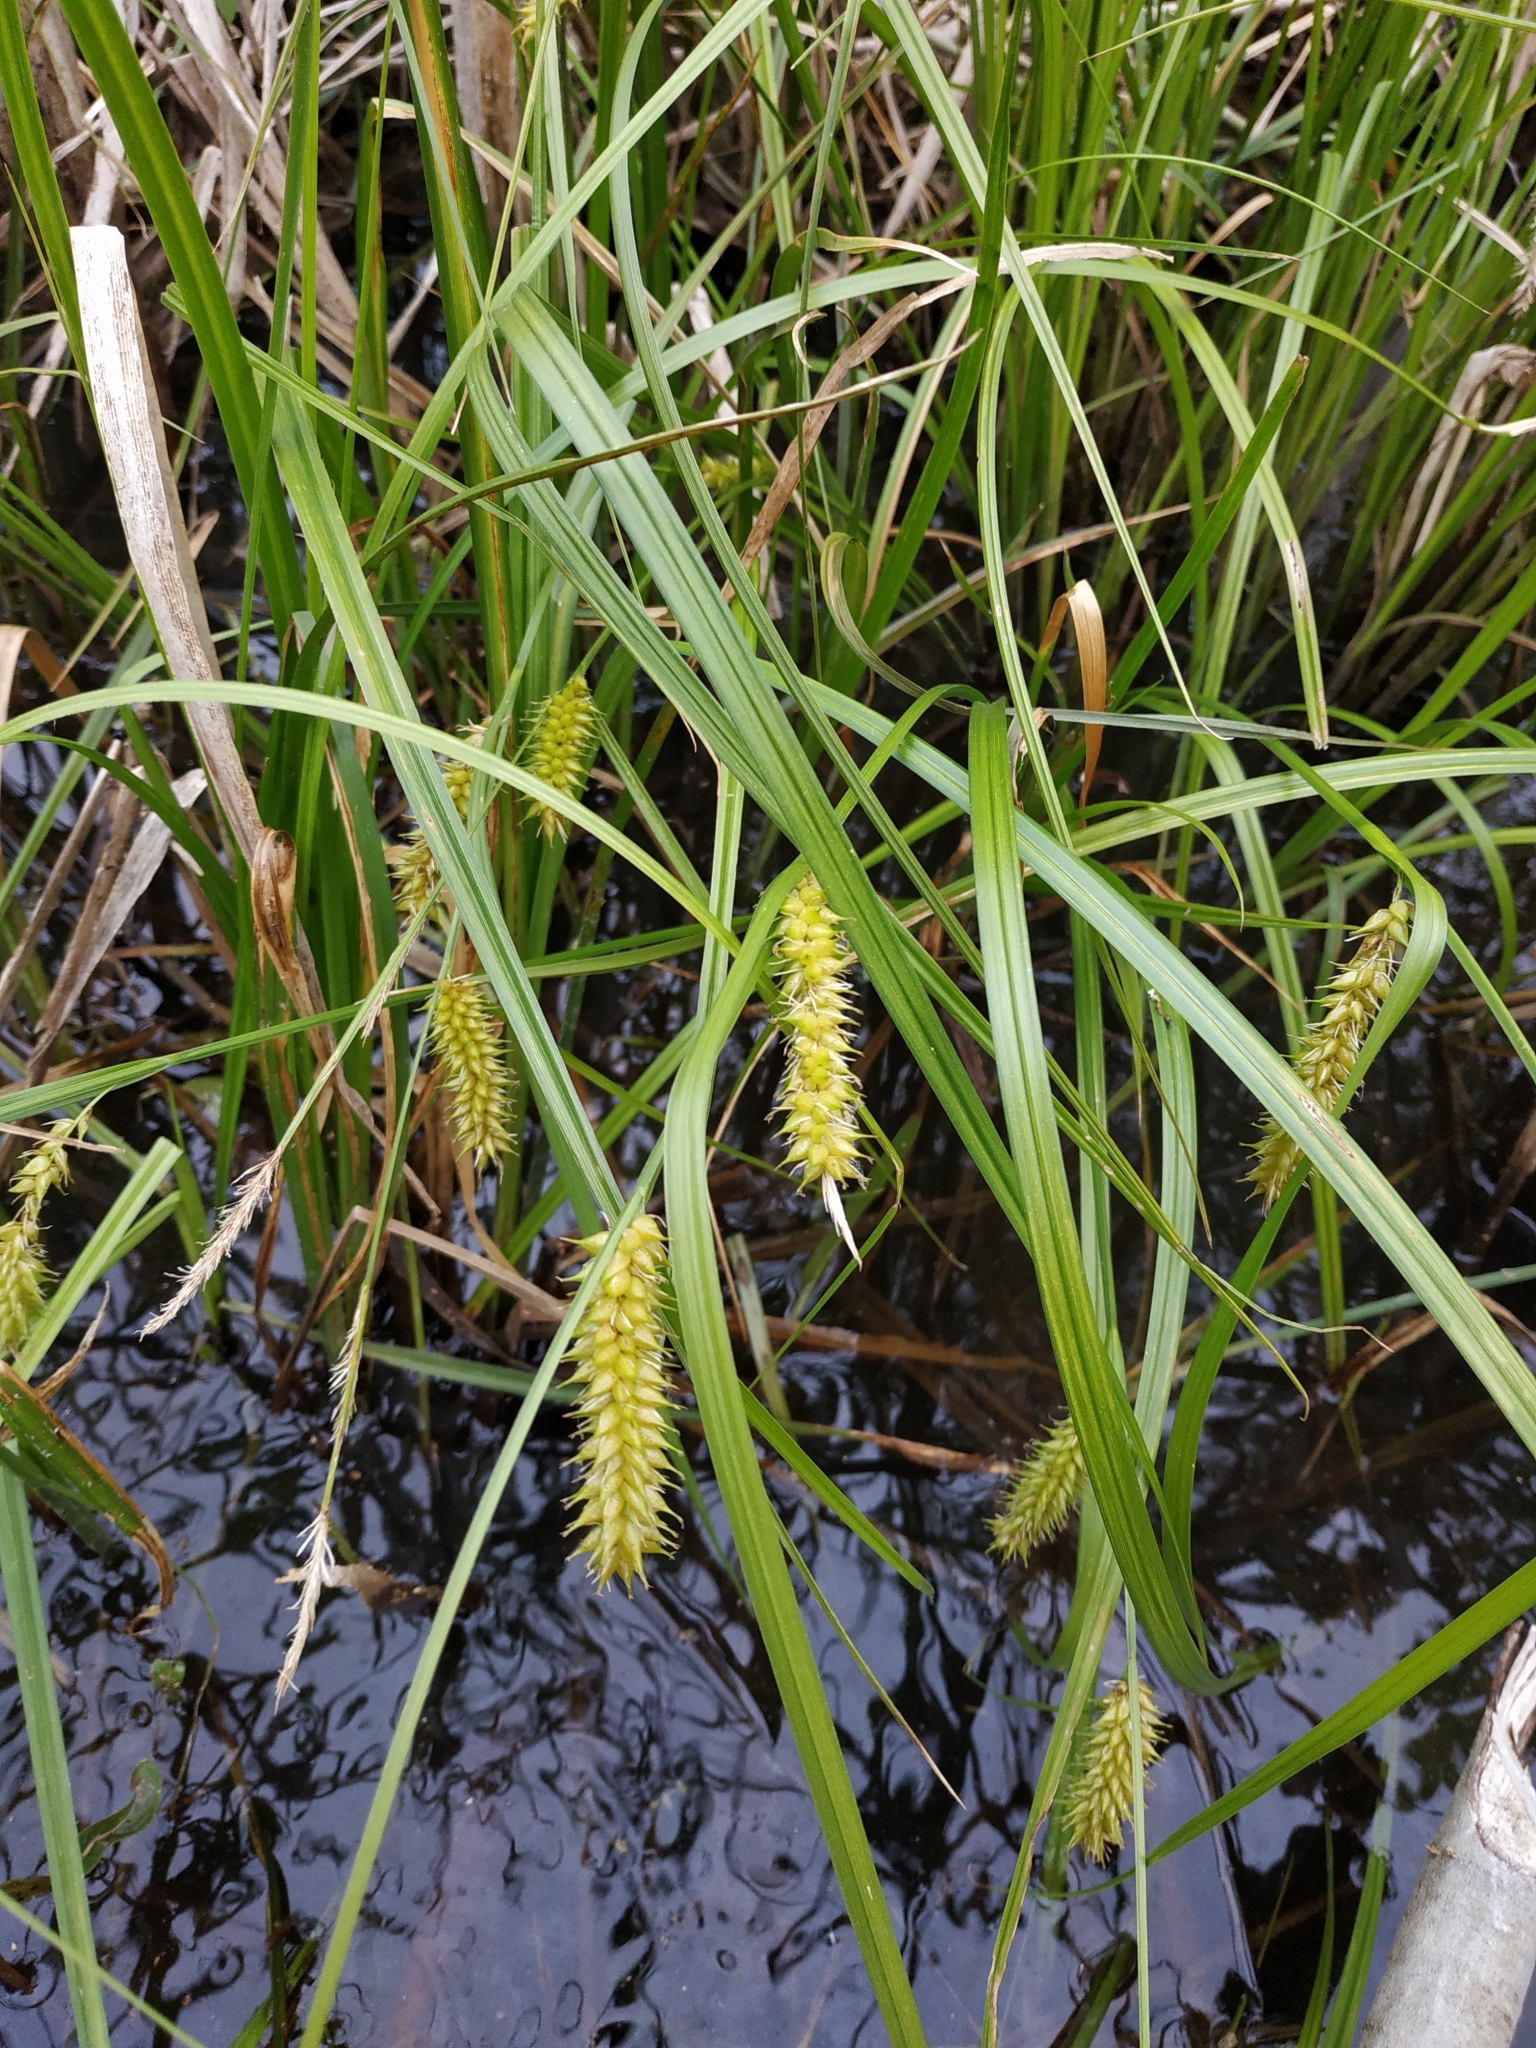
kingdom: Plantae
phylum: Tracheophyta
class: Liliopsida
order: Poales
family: Cyperaceae
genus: Carex
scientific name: Carex vesicaria
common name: Bladder-sedge
